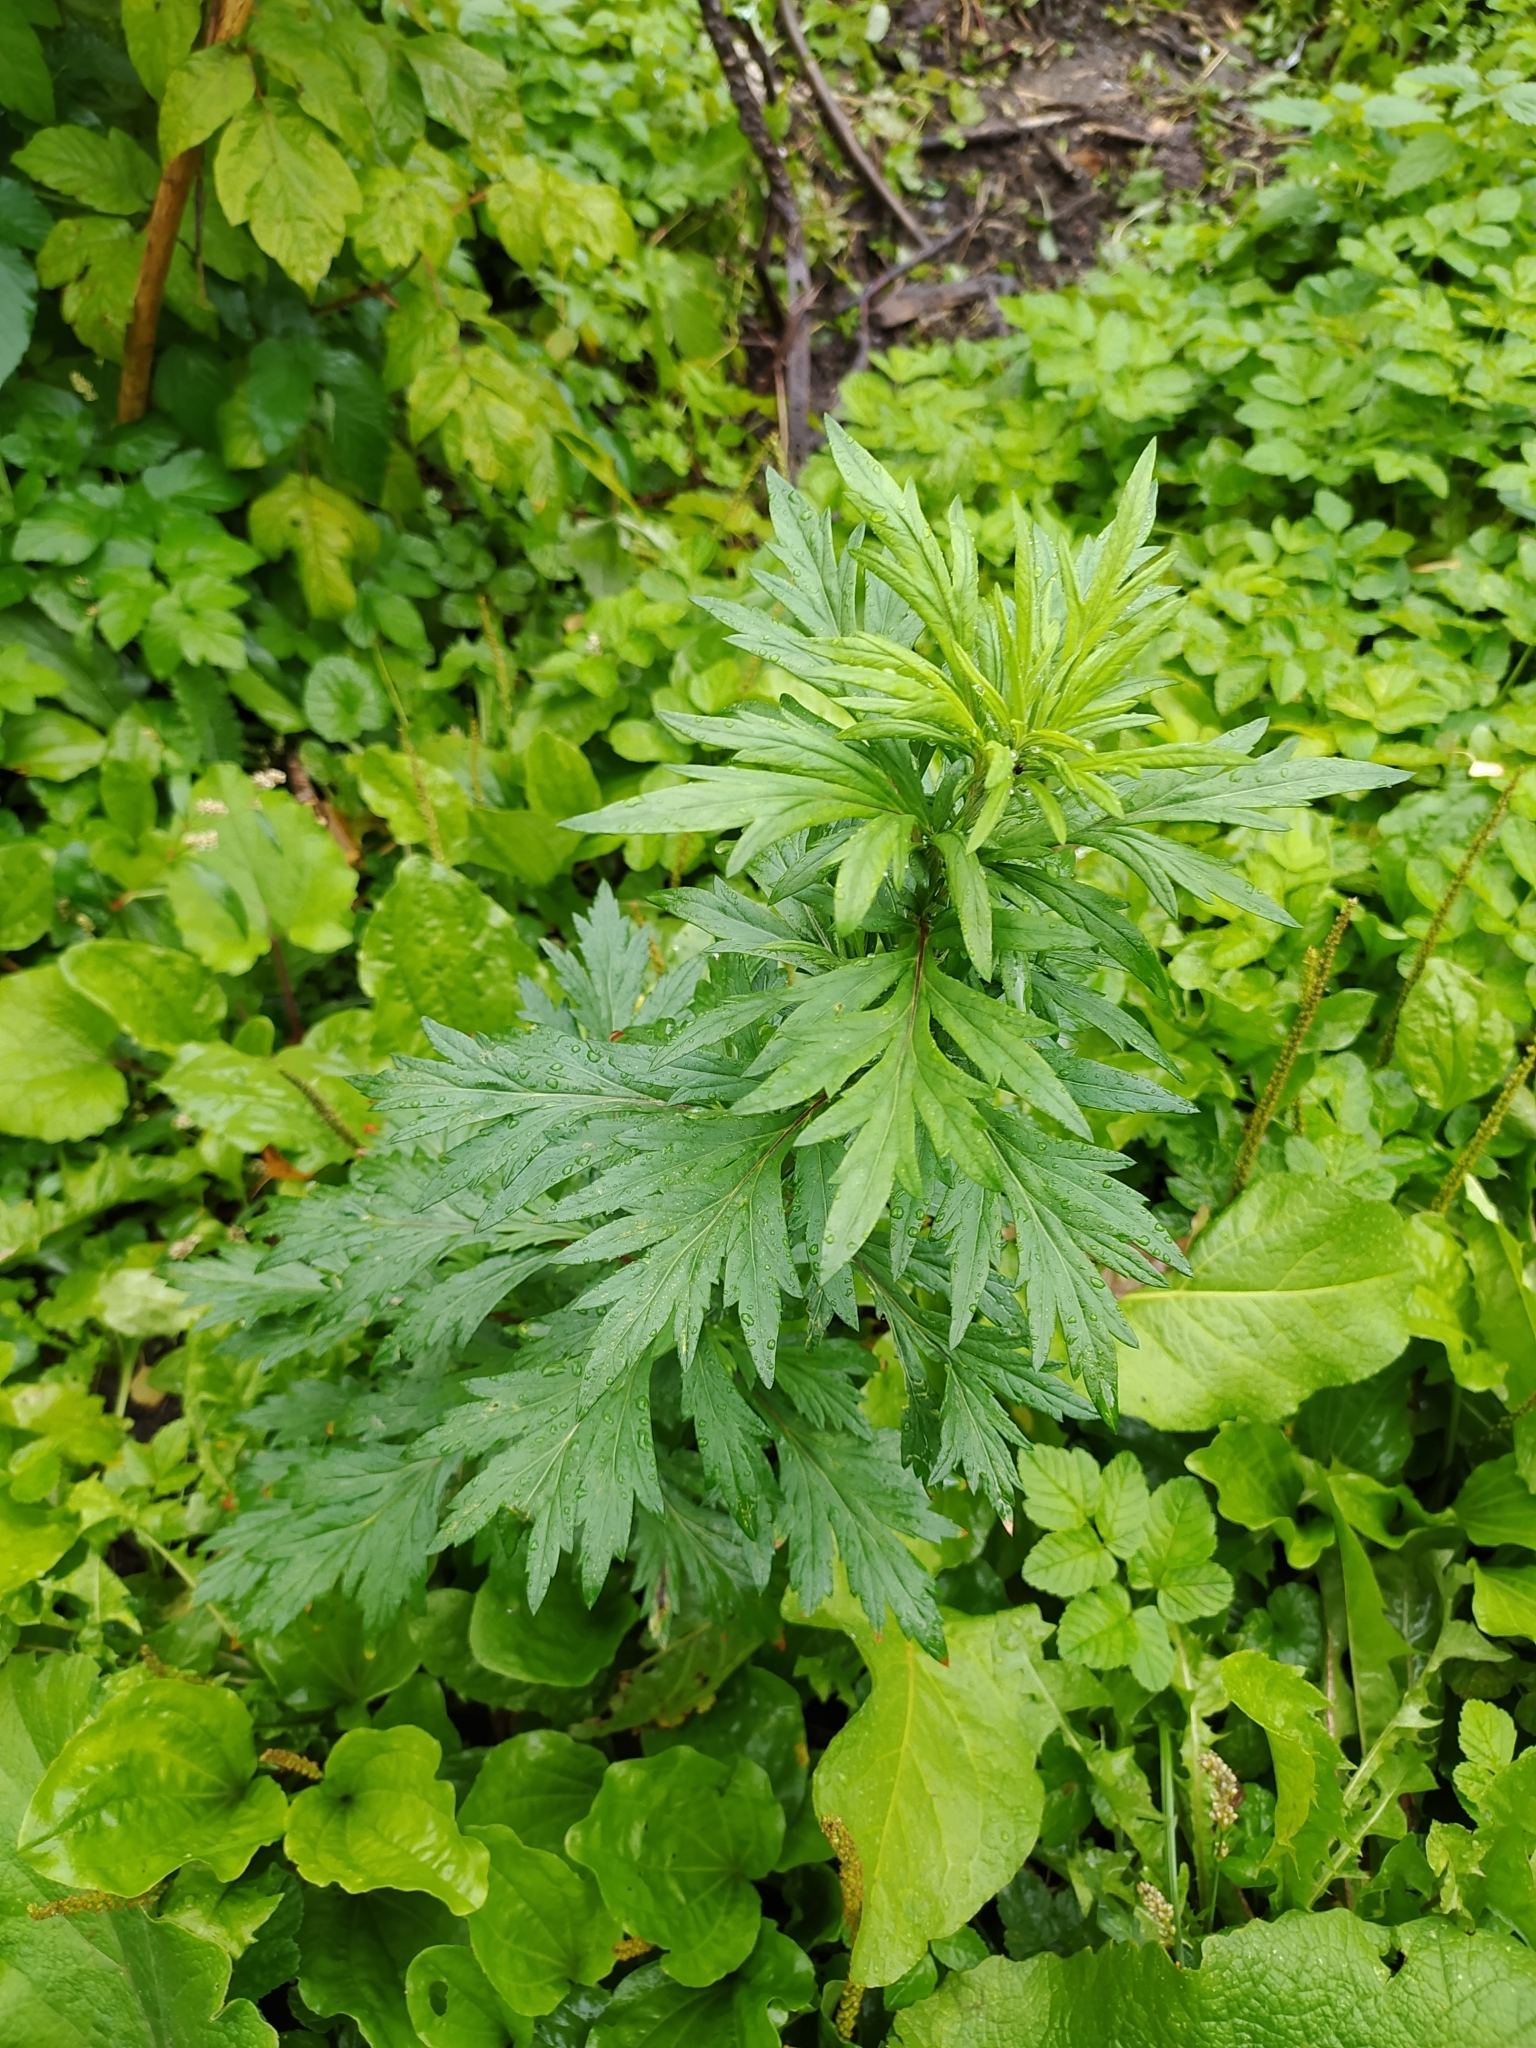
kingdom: Plantae
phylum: Tracheophyta
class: Magnoliopsida
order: Asterales
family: Asteraceae
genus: Artemisia
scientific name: Artemisia vulgaris
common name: Mugwort
